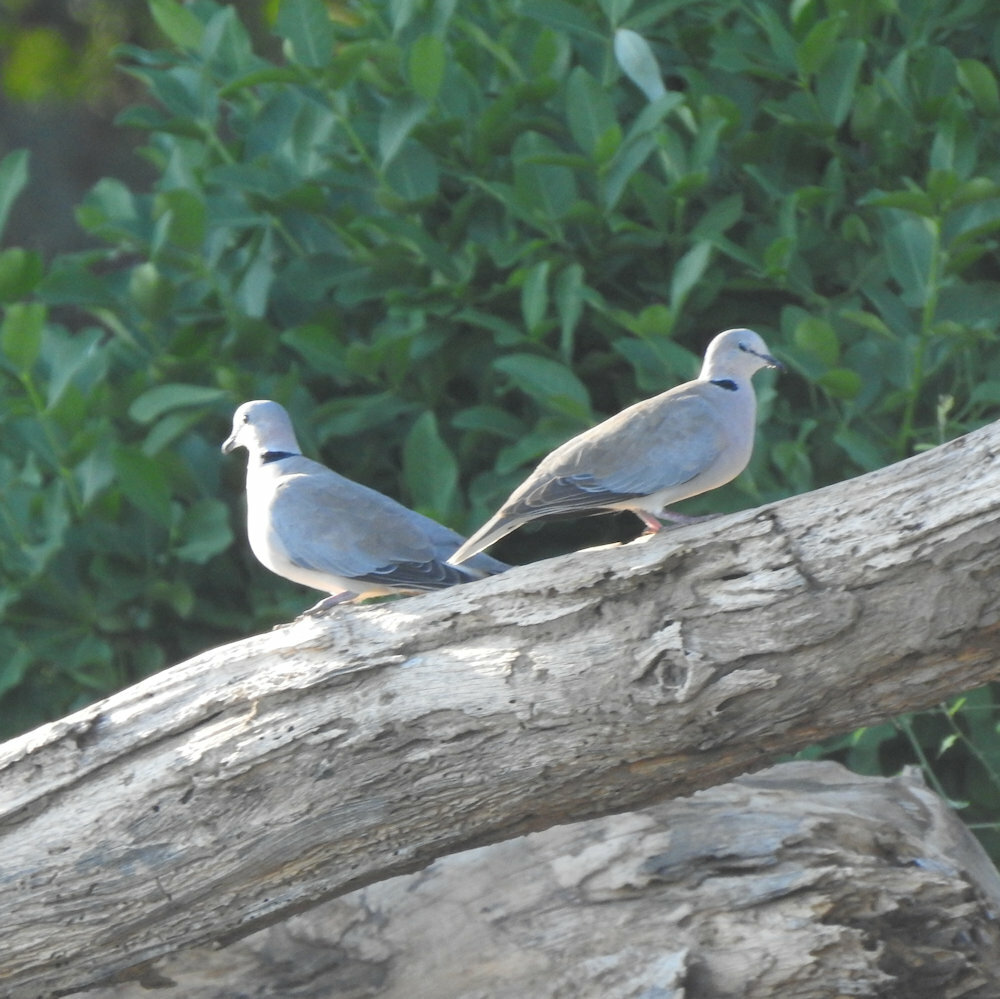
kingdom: Animalia
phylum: Chordata
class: Aves
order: Columbiformes
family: Columbidae
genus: Streptopelia
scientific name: Streptopelia capicola
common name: Ring-necked dove
